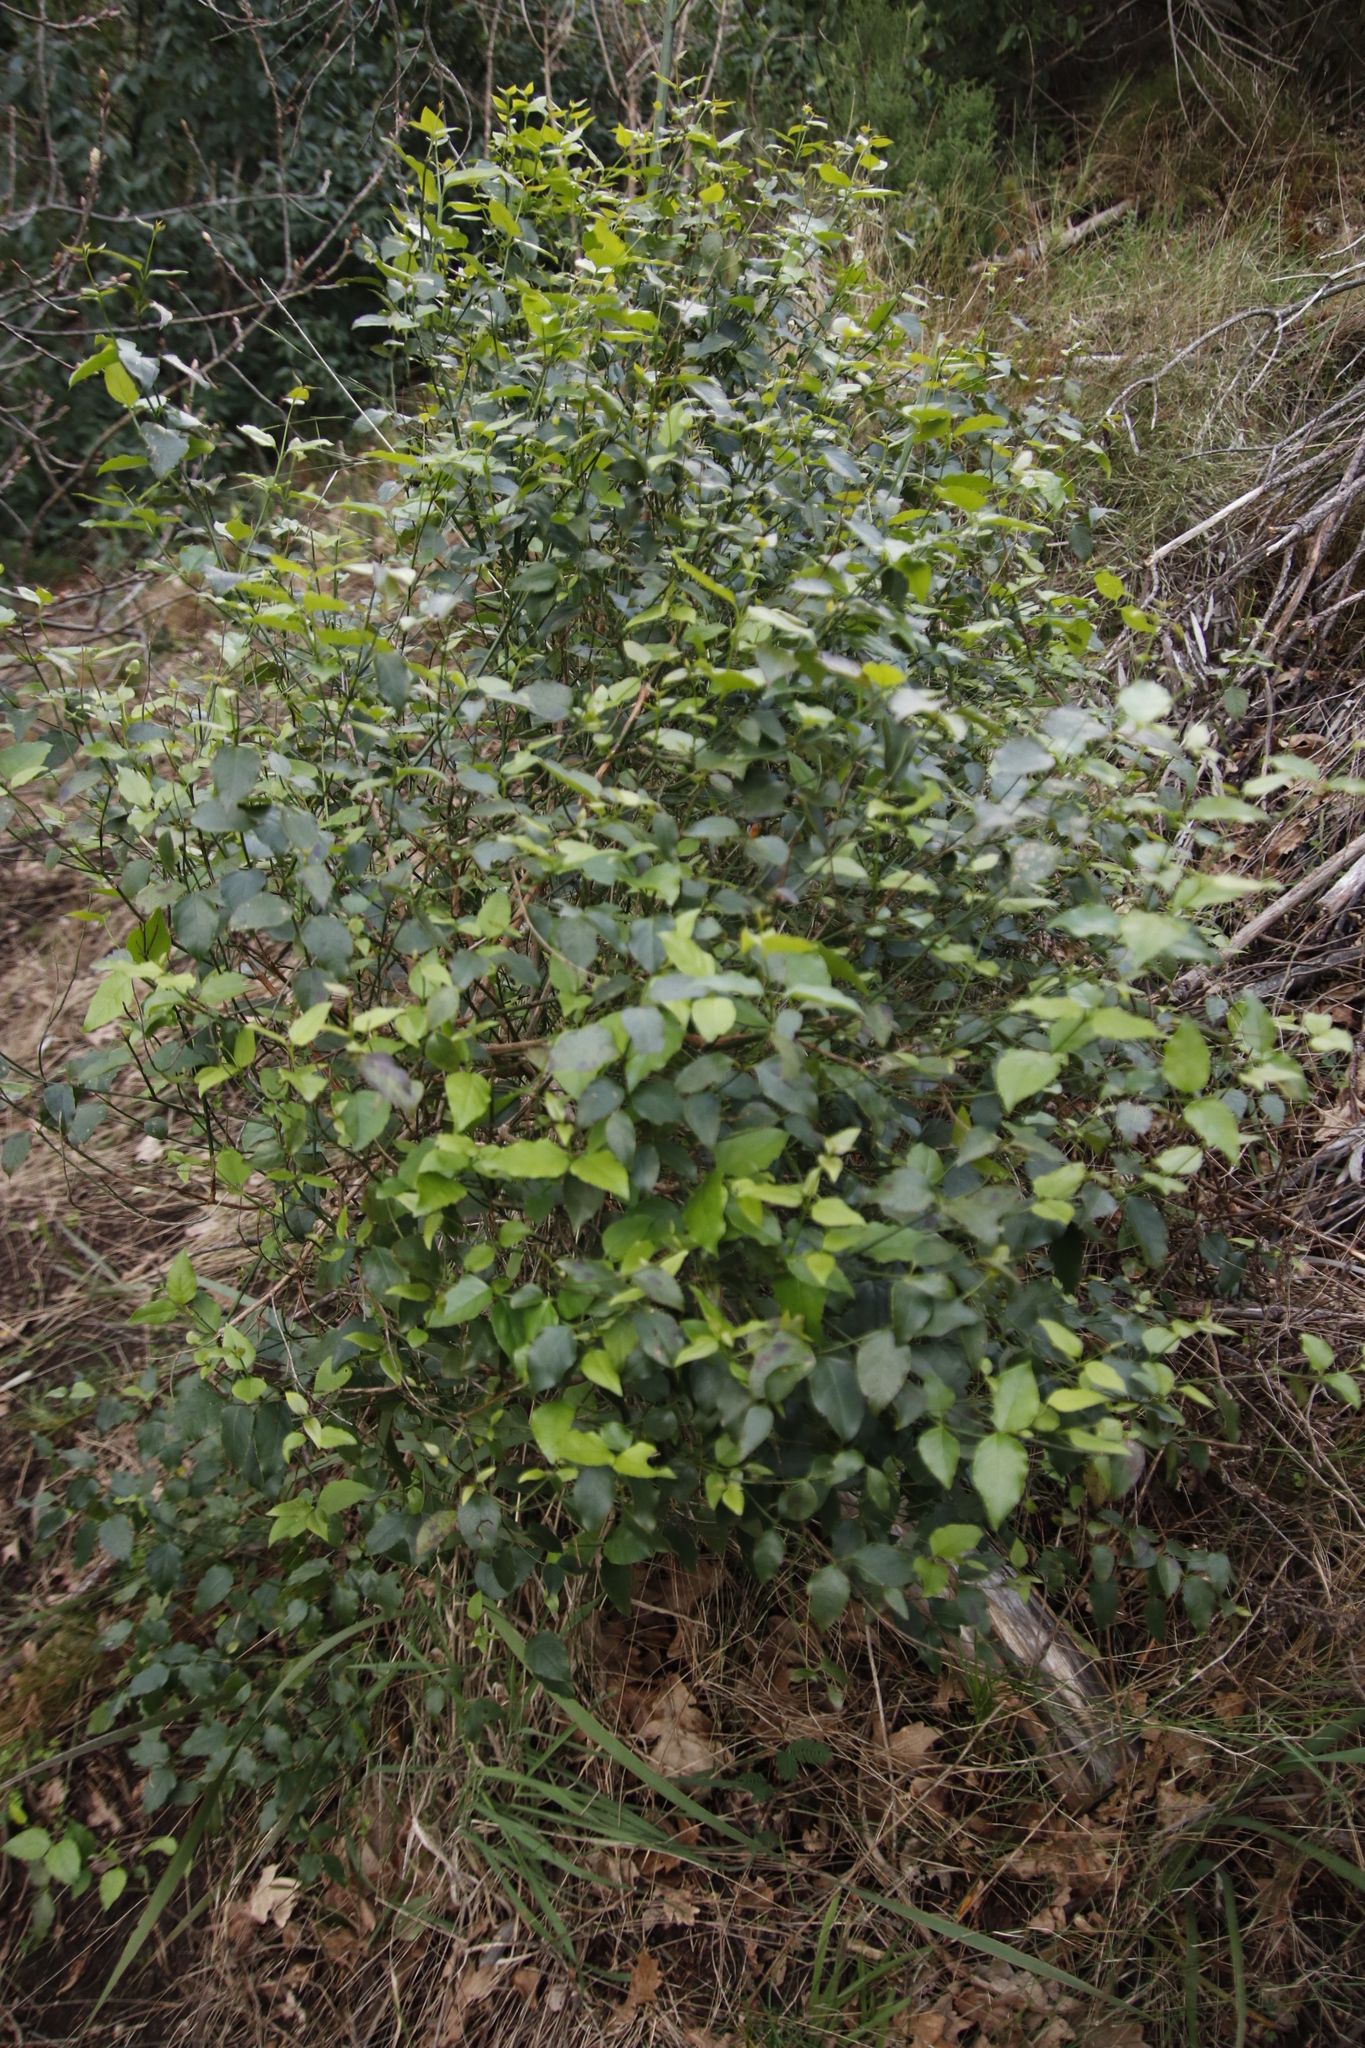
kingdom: Plantae
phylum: Tracheophyta
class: Magnoliopsida
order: Lamiales
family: Stilbaceae
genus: Halleria
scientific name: Halleria lucida
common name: Tree fuschia
